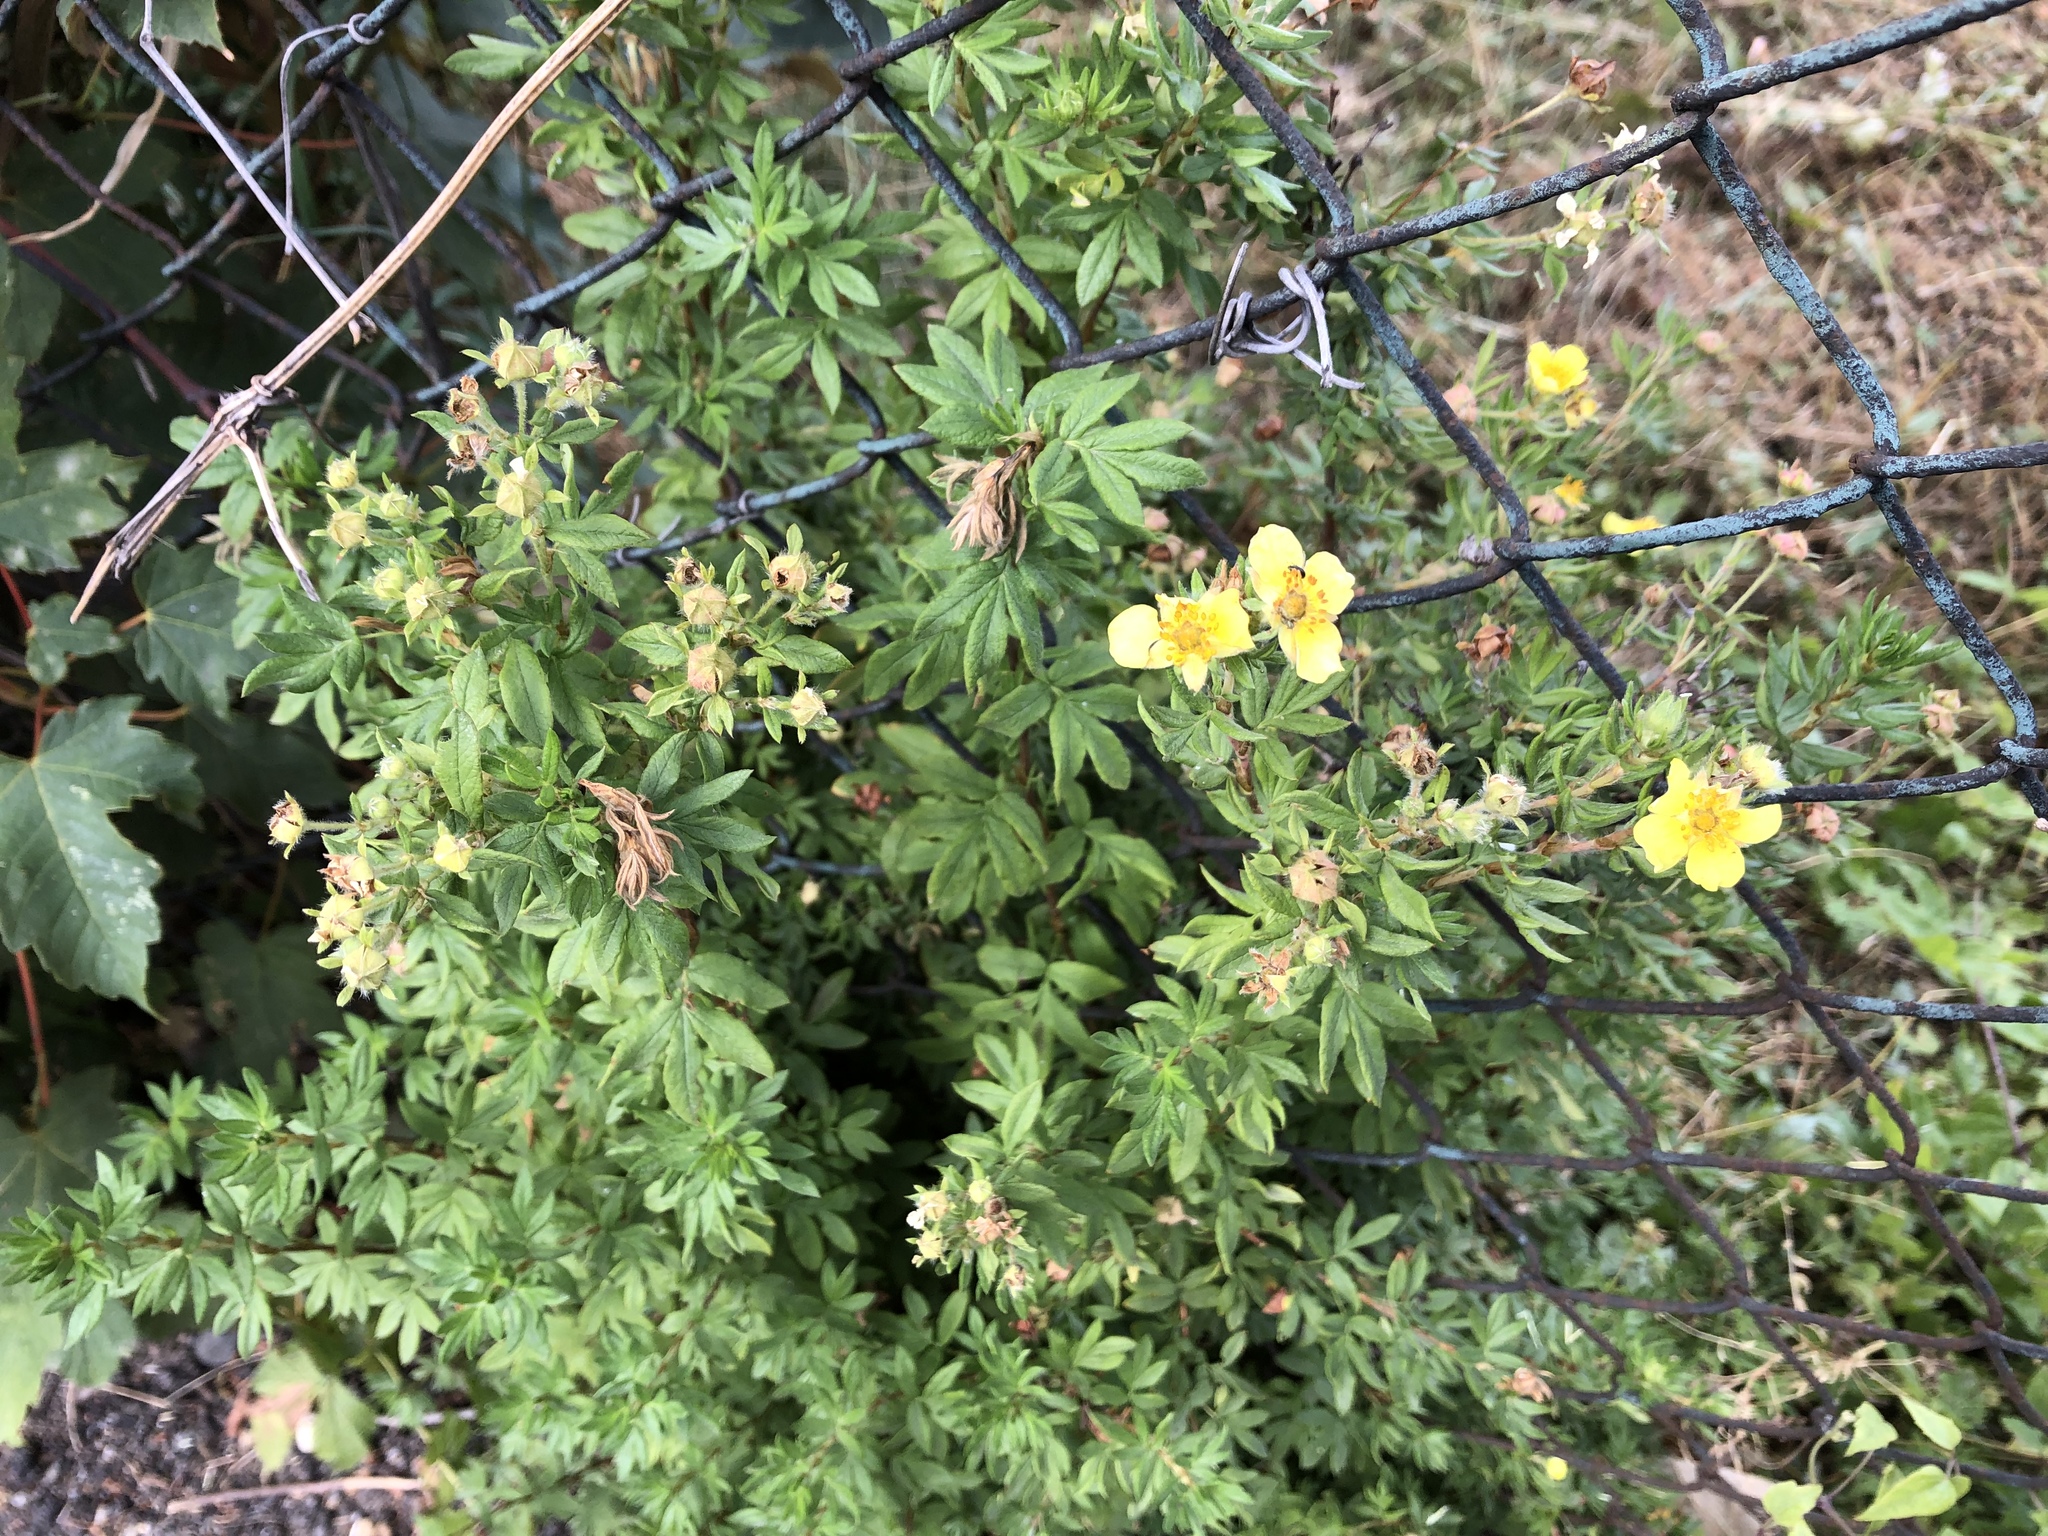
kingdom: Plantae
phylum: Tracheophyta
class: Magnoliopsida
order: Rosales
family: Rosaceae
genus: Dasiphora
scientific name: Dasiphora fruticosa
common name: Shrubby cinquefoil
